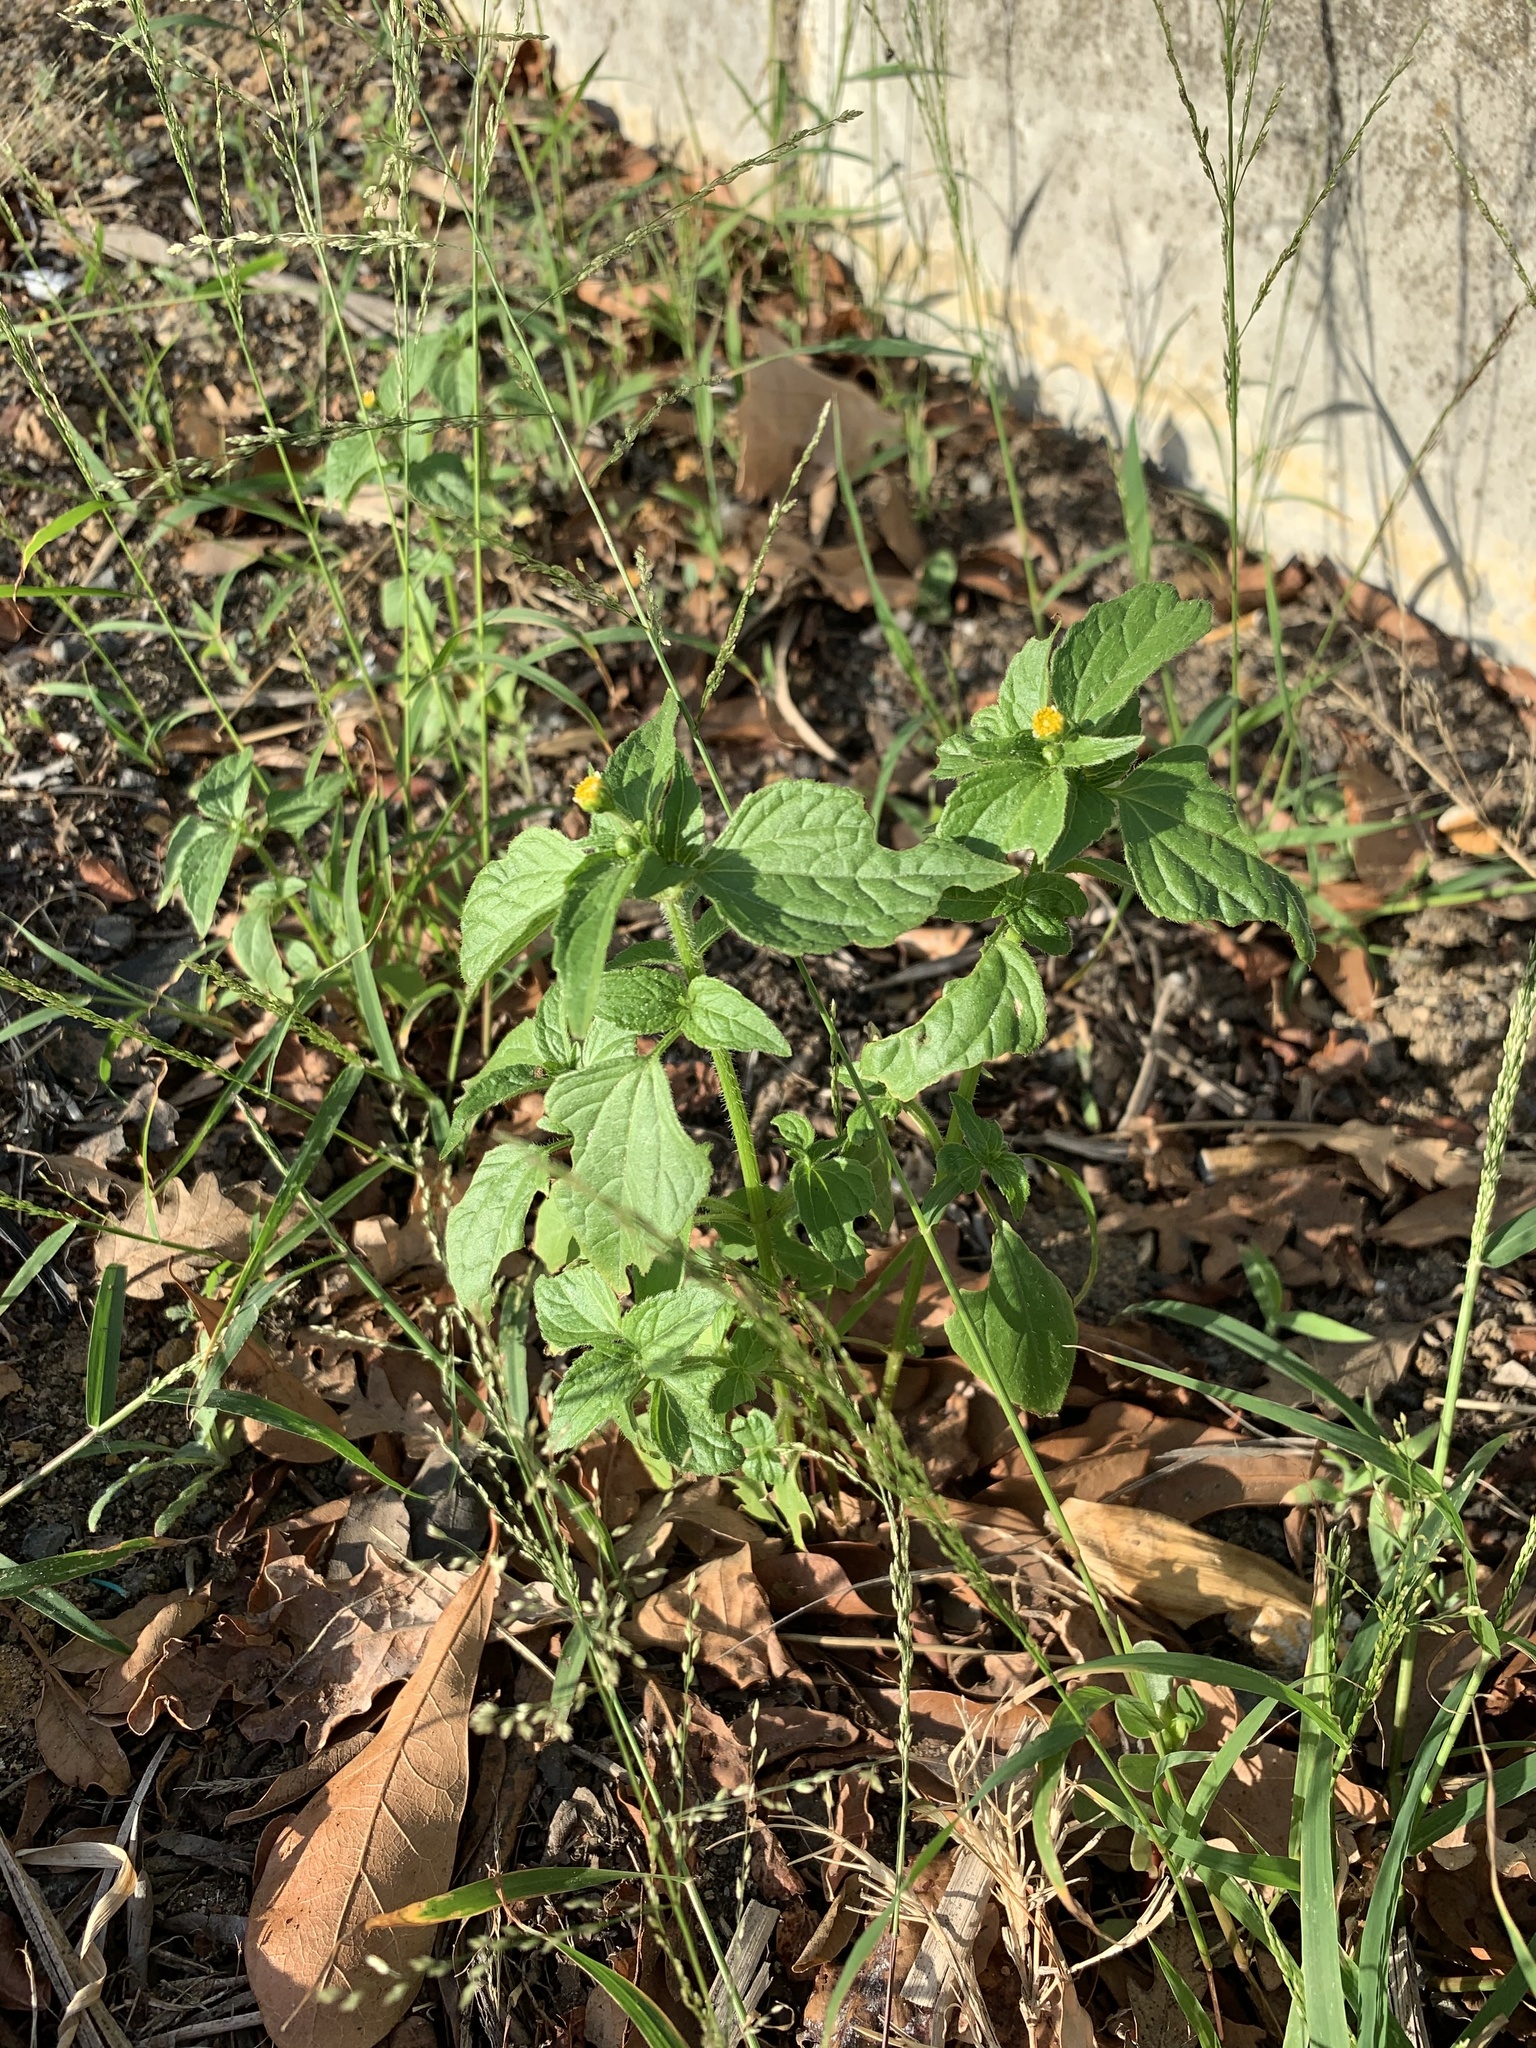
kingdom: Plantae
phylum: Tracheophyta
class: Magnoliopsida
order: Asterales
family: Asteraceae
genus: Galinsoga
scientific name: Galinsoga quadriradiata
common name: Shaggy soldier
